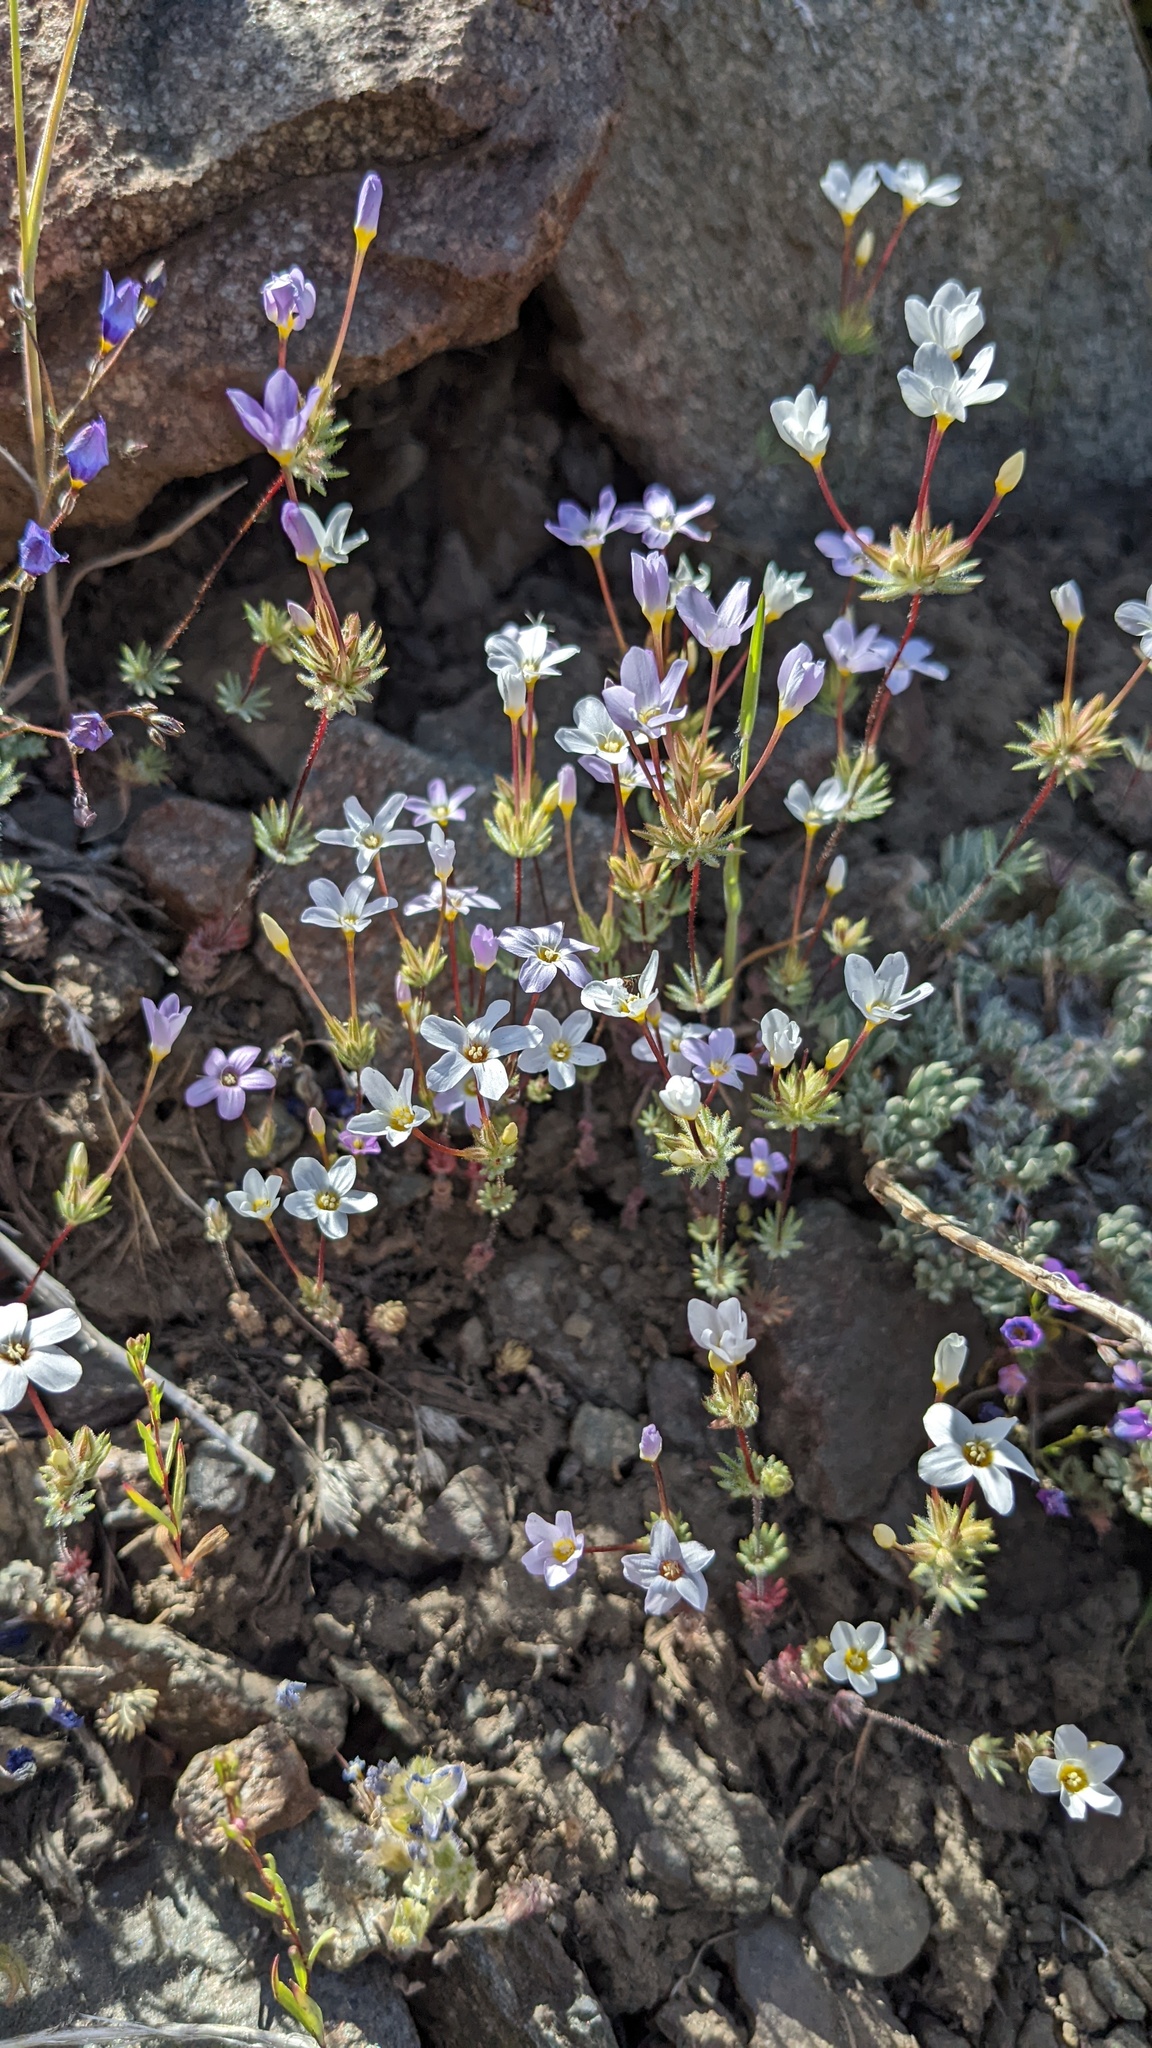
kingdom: Plantae
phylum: Tracheophyta
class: Magnoliopsida
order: Ericales
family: Polemoniaceae
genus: Leptosiphon
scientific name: Leptosiphon breviculus
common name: Mojave linanthus
